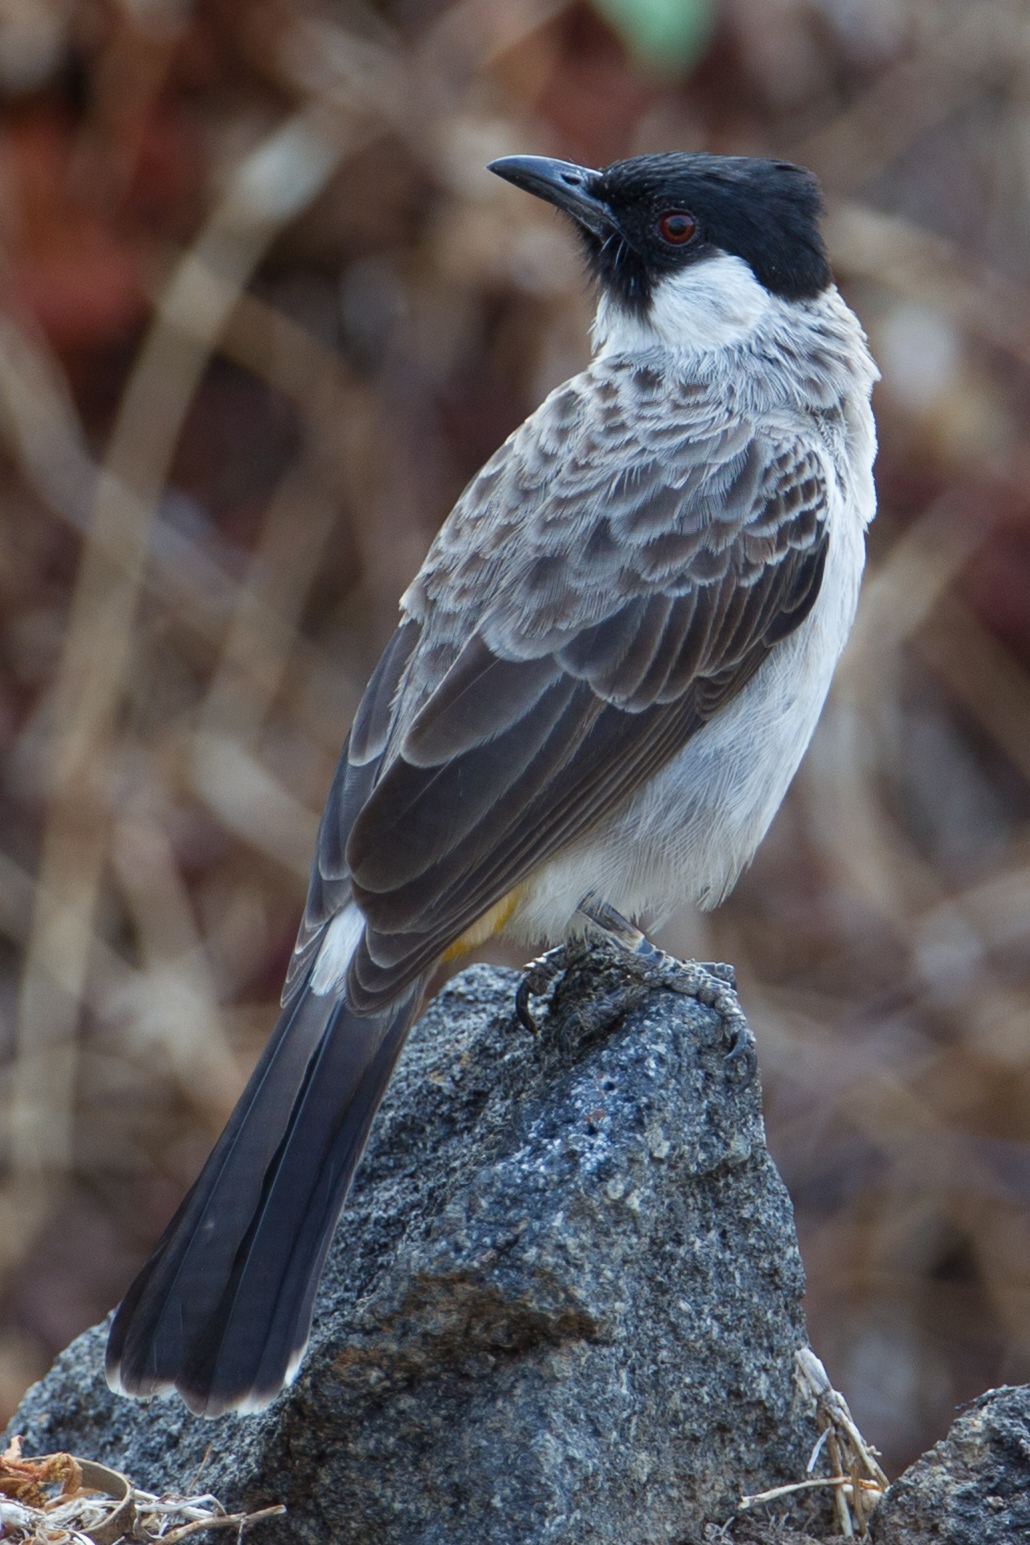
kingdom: Animalia
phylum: Chordata
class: Aves
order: Passeriformes
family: Pycnonotidae
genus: Pycnonotus
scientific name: Pycnonotus aurigaster
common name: Sooty-headed bulbul
